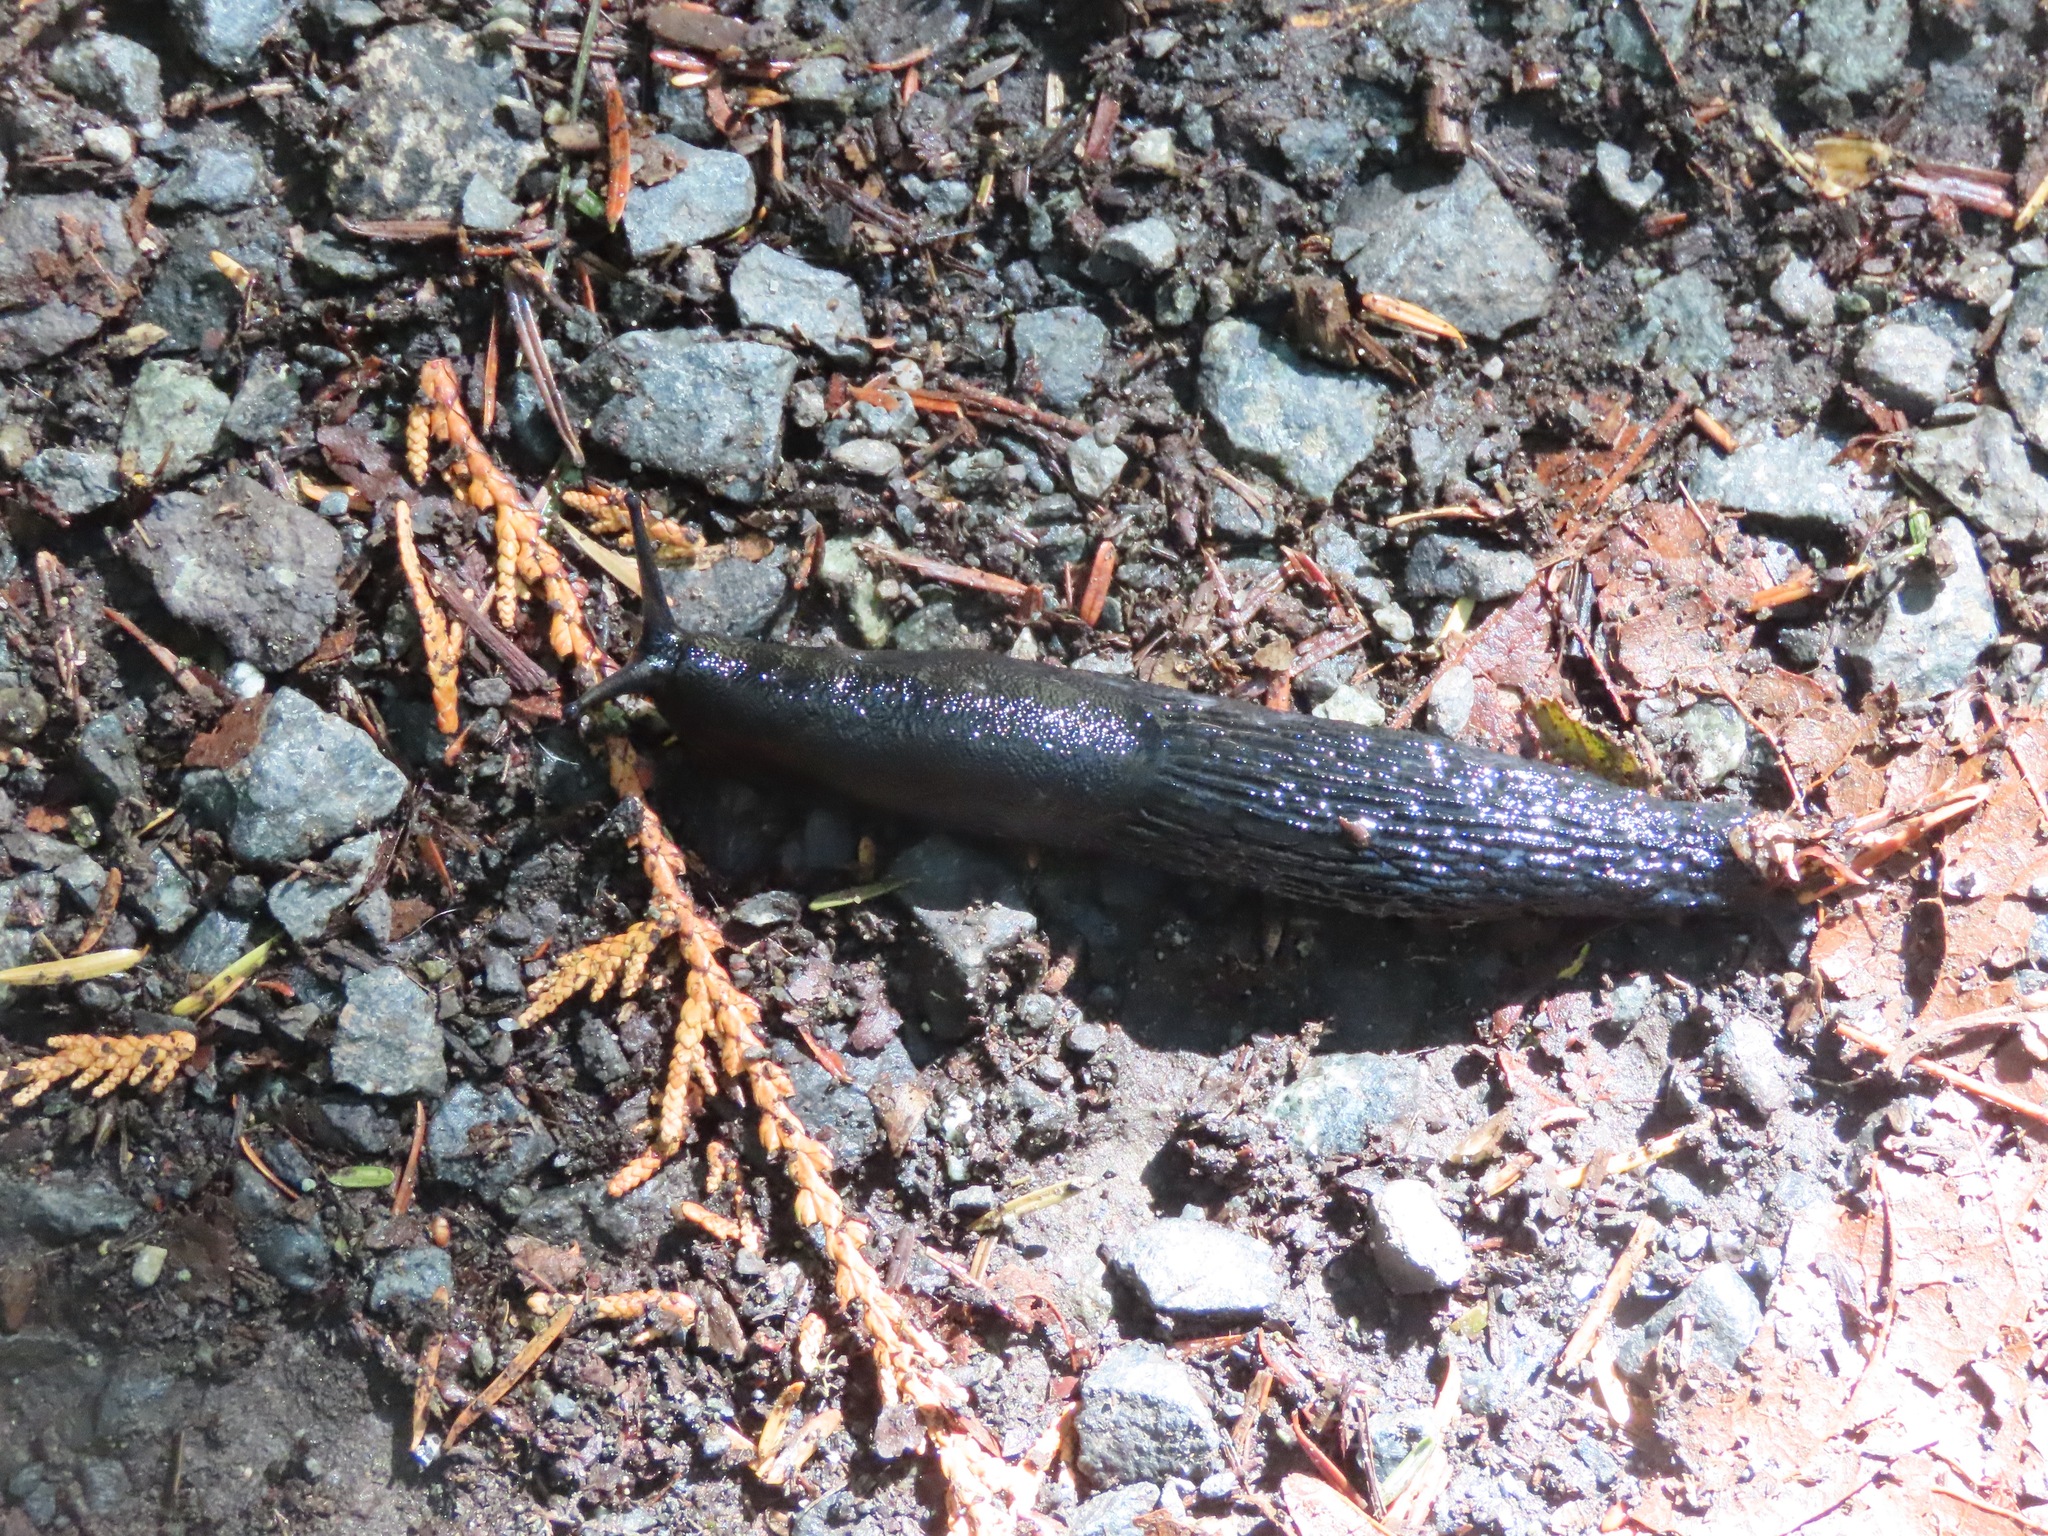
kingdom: Animalia
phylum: Mollusca
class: Gastropoda
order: Stylommatophora
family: Arionidae
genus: Arion
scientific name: Arion ater
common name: Black arion
